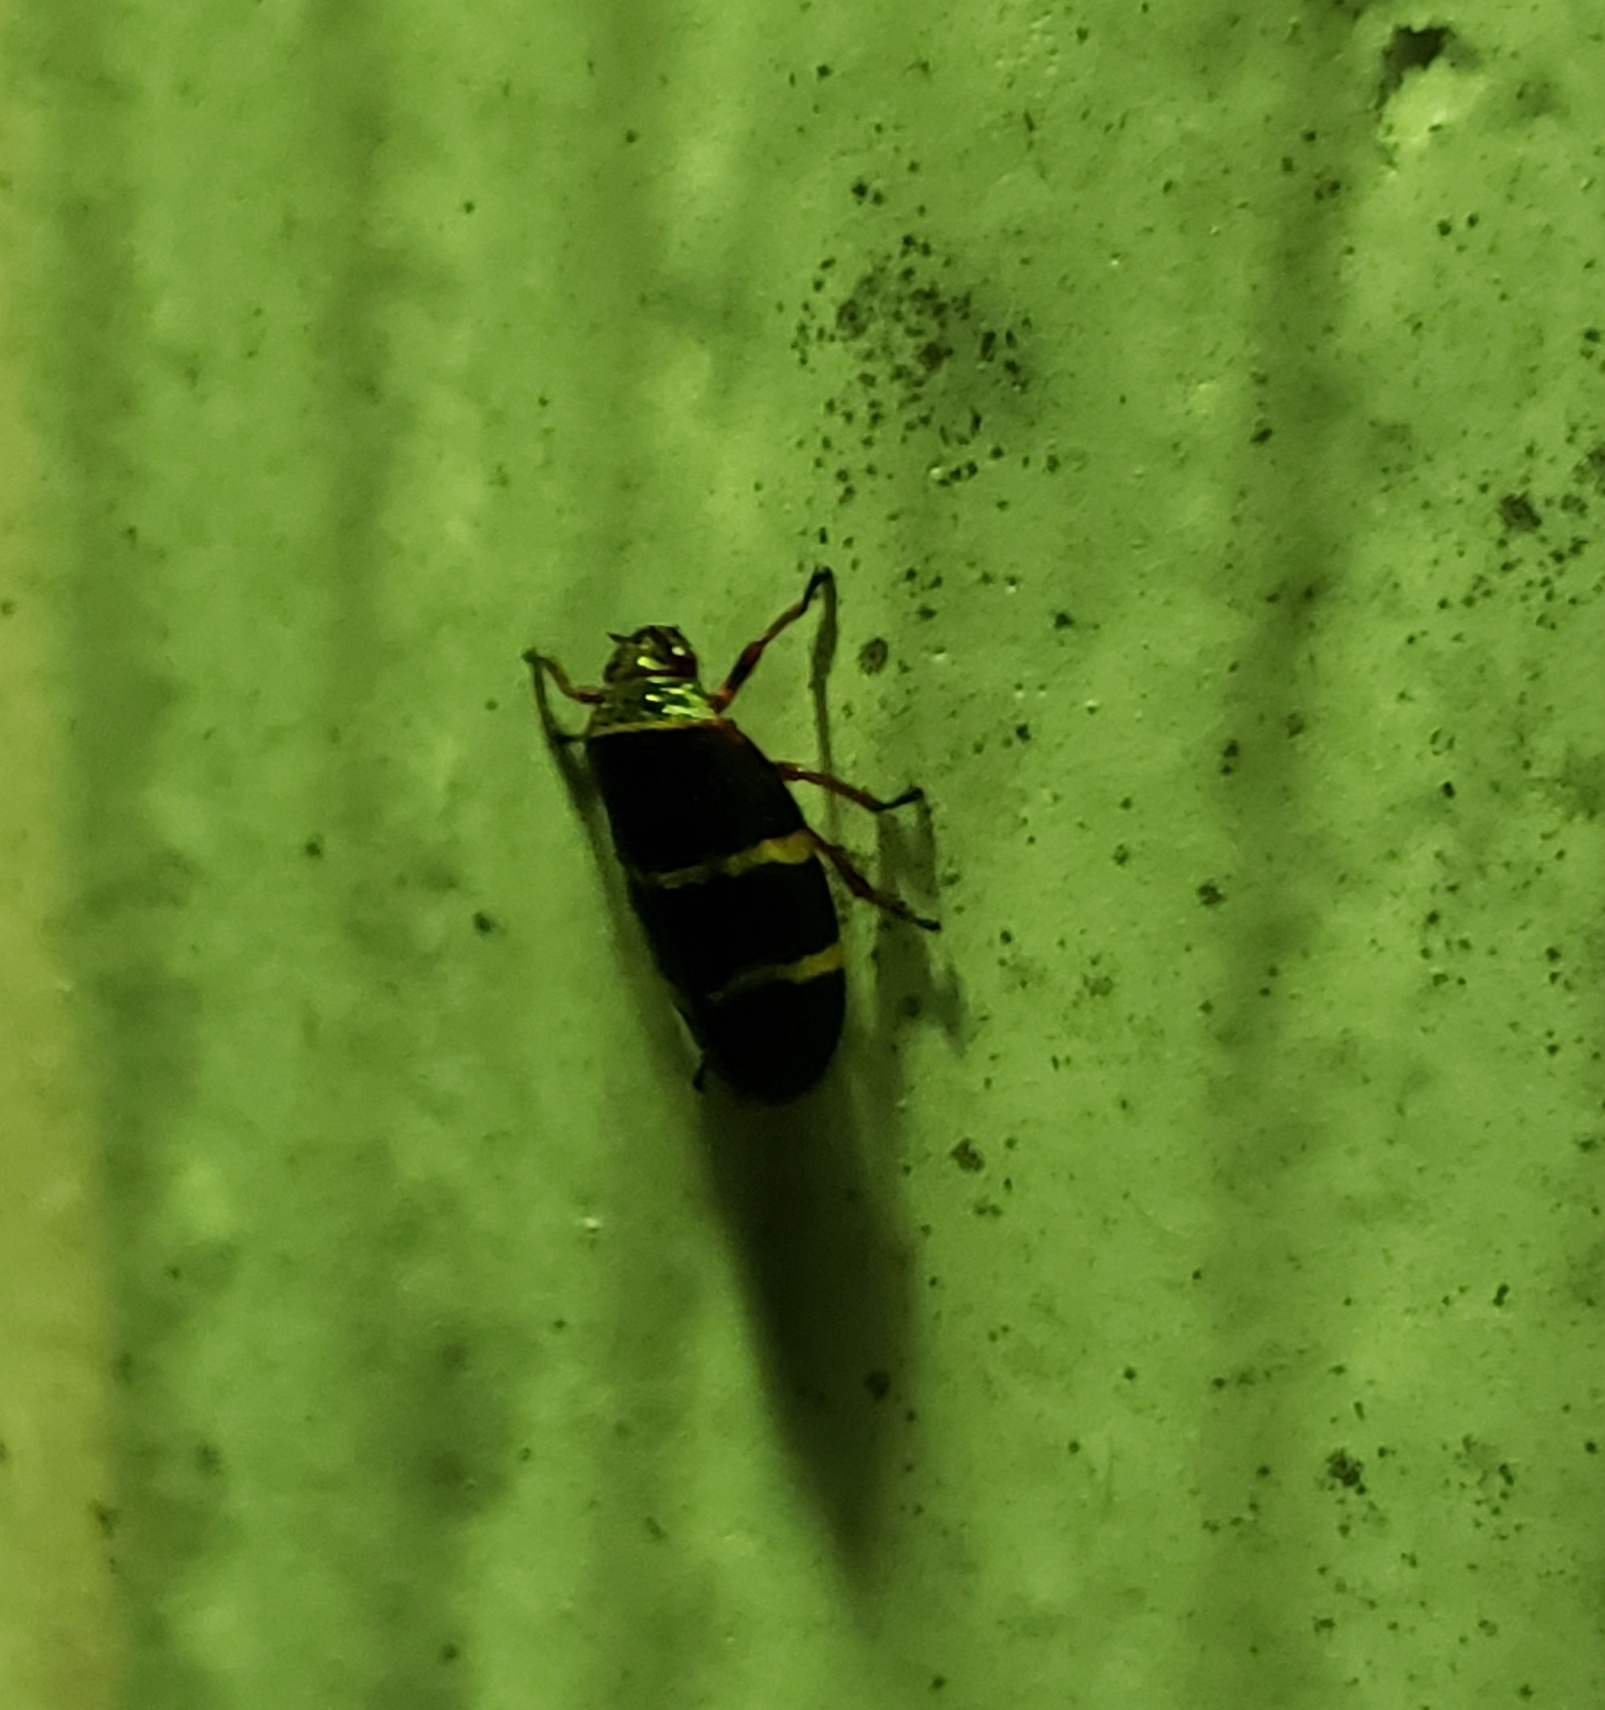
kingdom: Animalia
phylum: Arthropoda
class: Insecta
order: Hemiptera
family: Cercopidae
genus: Prosapia
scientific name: Prosapia bicincta
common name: Twolined spittlebug
